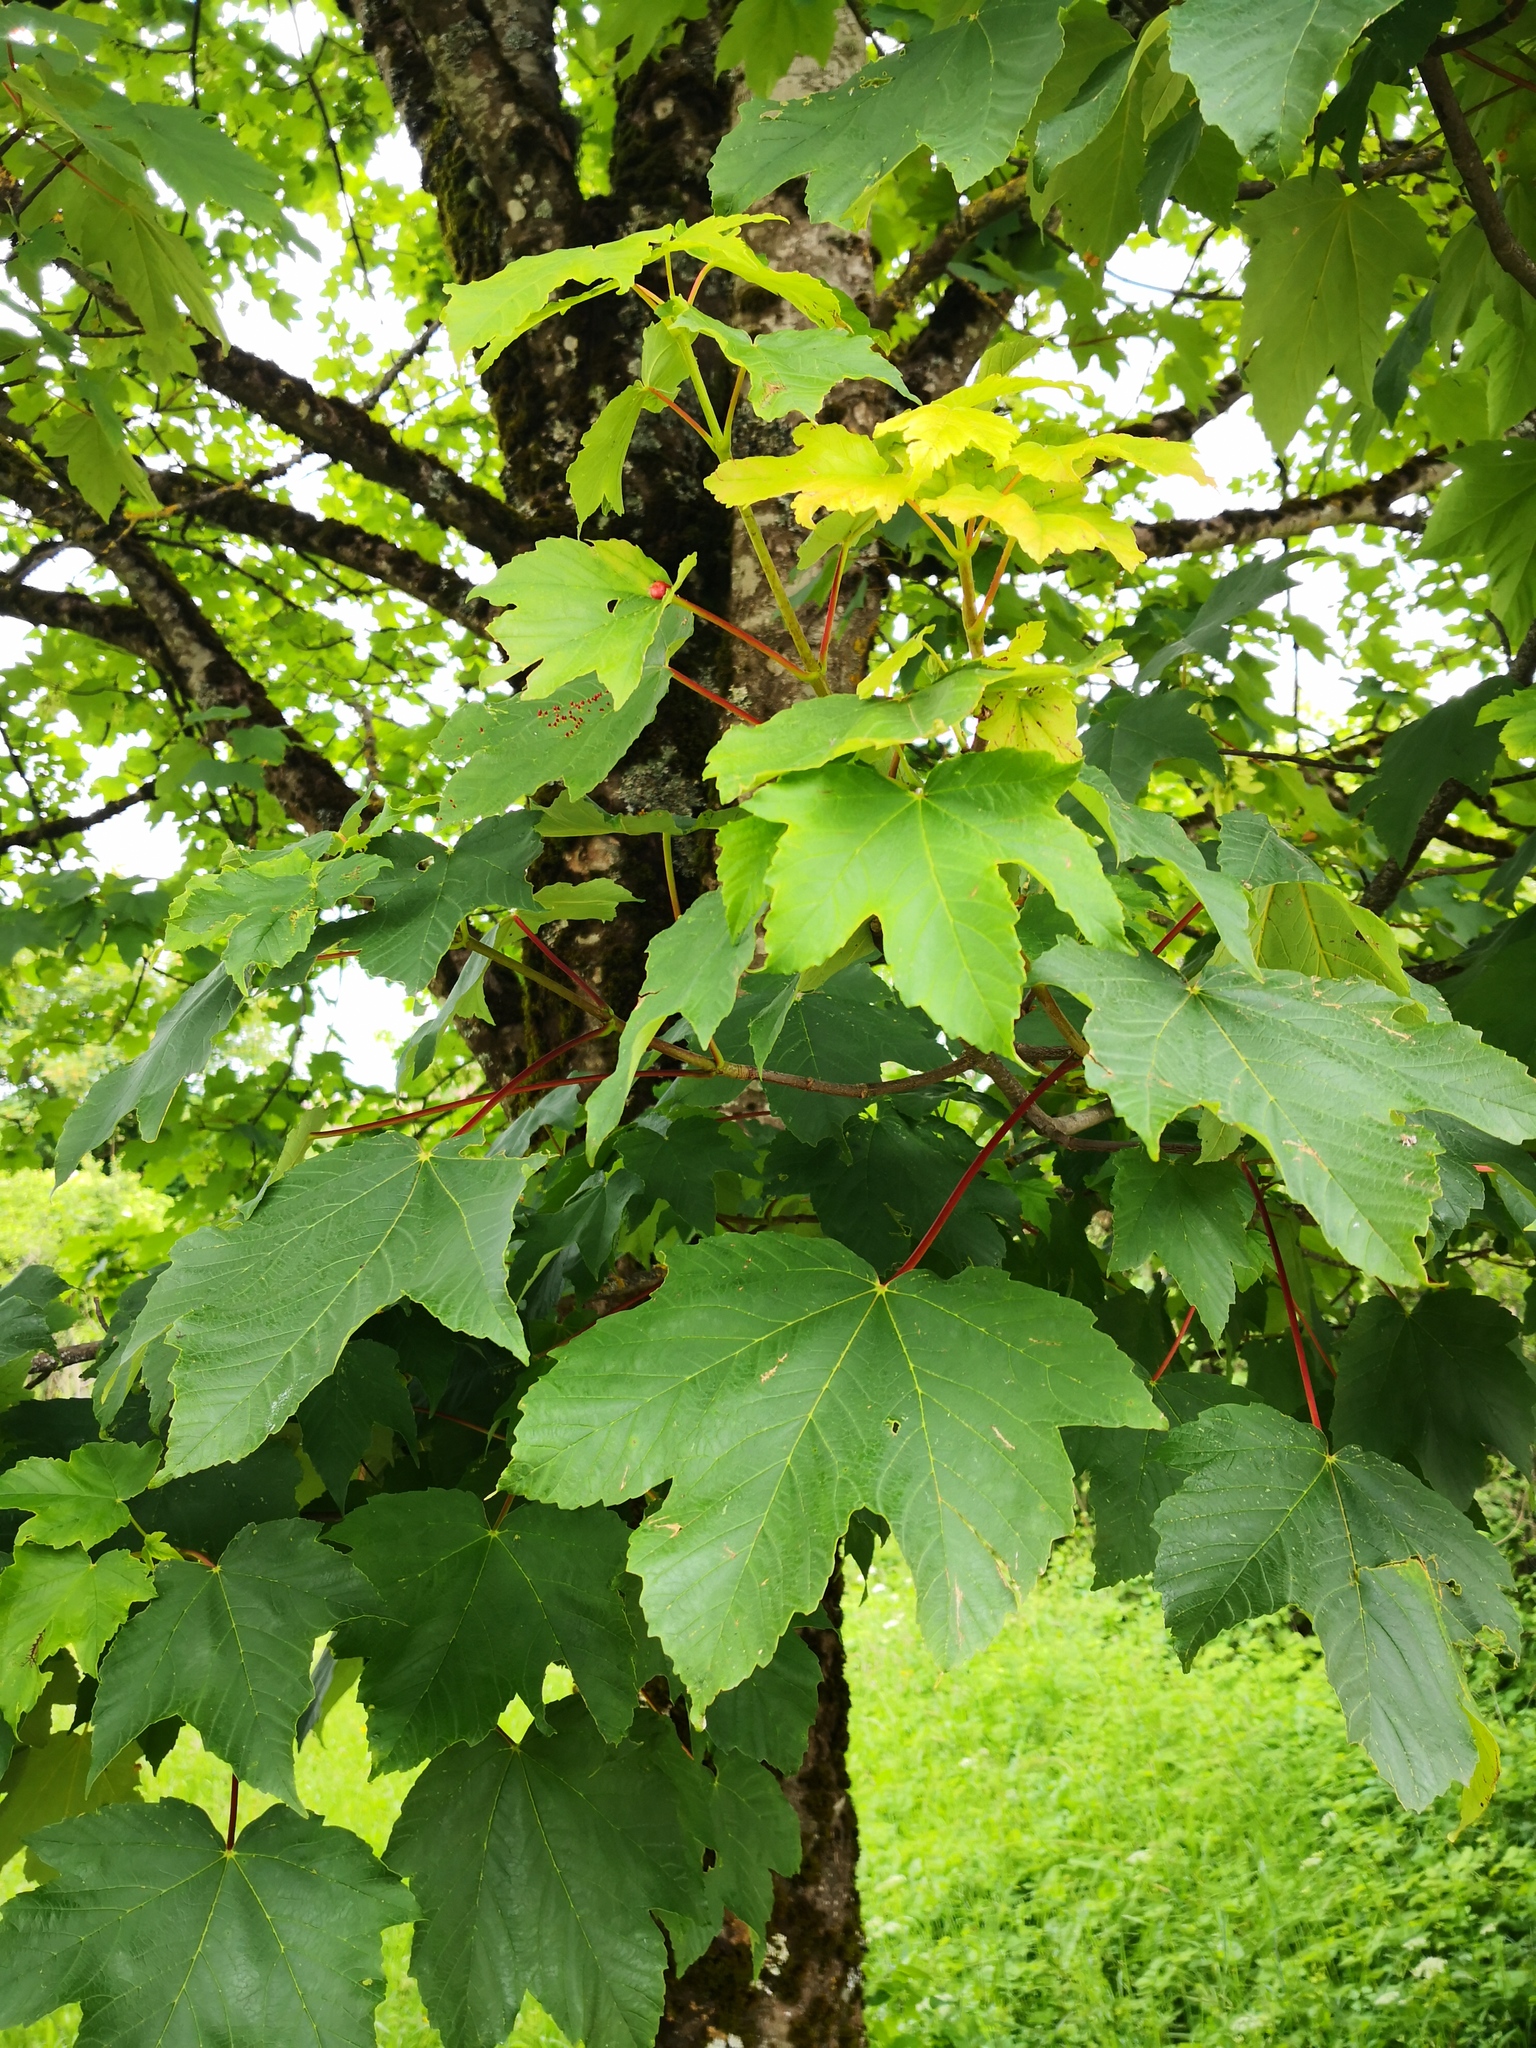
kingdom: Plantae
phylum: Tracheophyta
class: Magnoliopsida
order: Sapindales
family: Sapindaceae
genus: Acer
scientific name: Acer pseudoplatanus
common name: Sycamore
